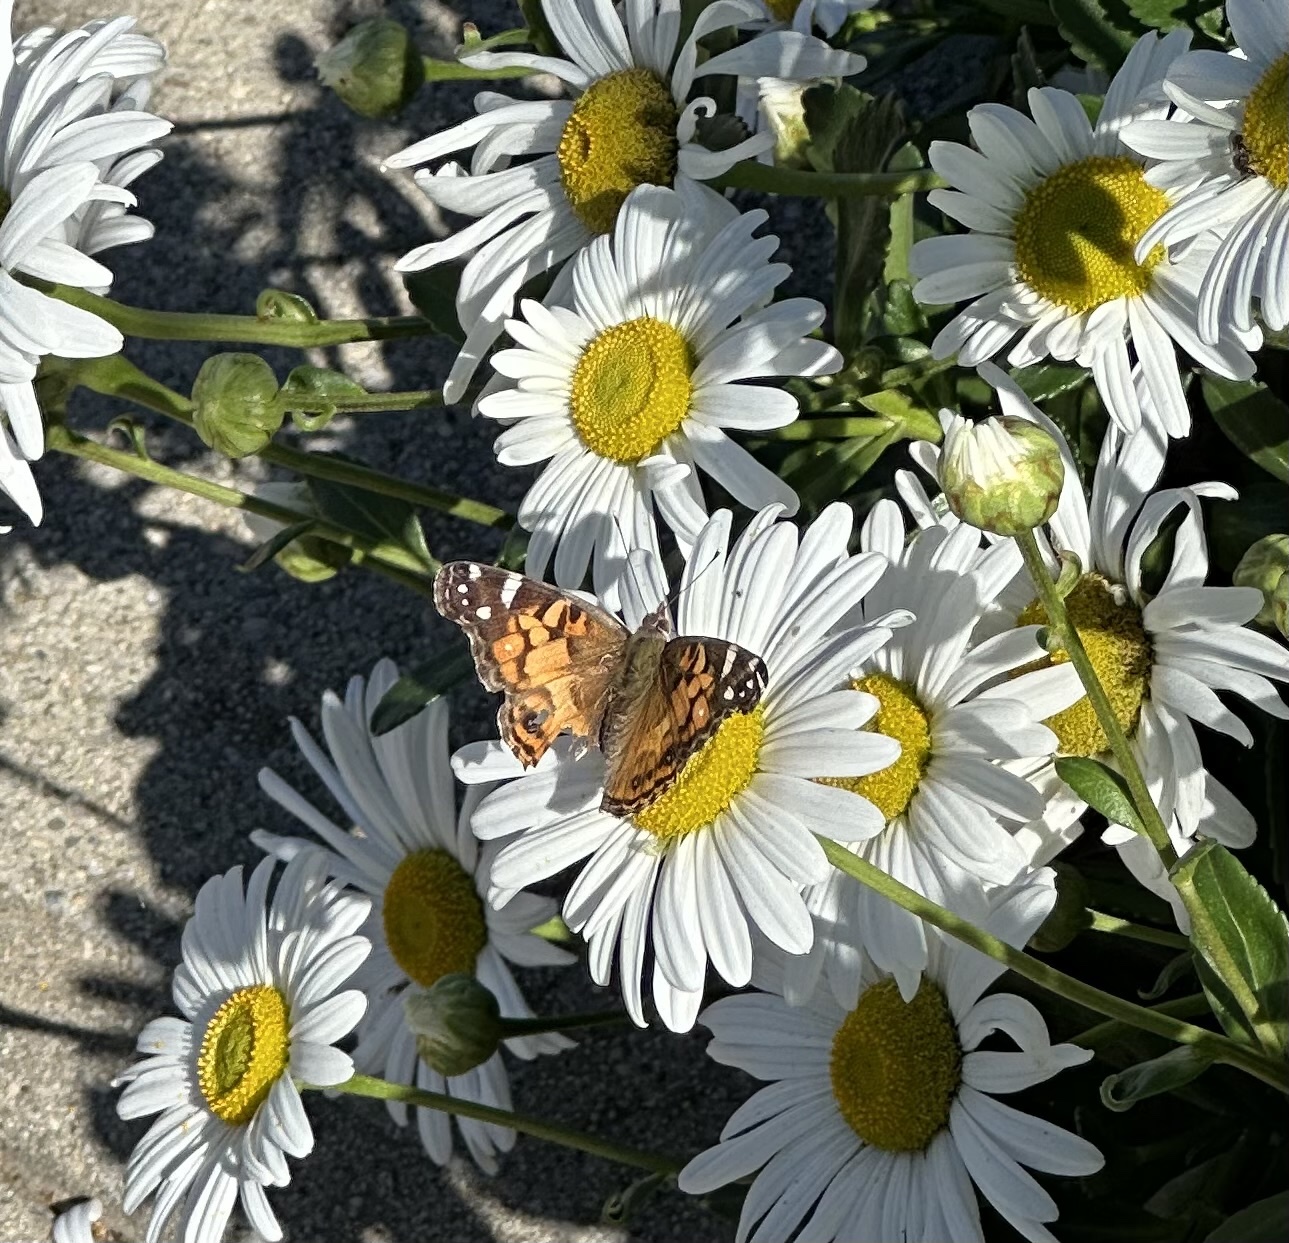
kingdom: Animalia
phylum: Arthropoda
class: Insecta
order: Lepidoptera
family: Nymphalidae
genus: Vanessa
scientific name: Vanessa virginiensis
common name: American lady
